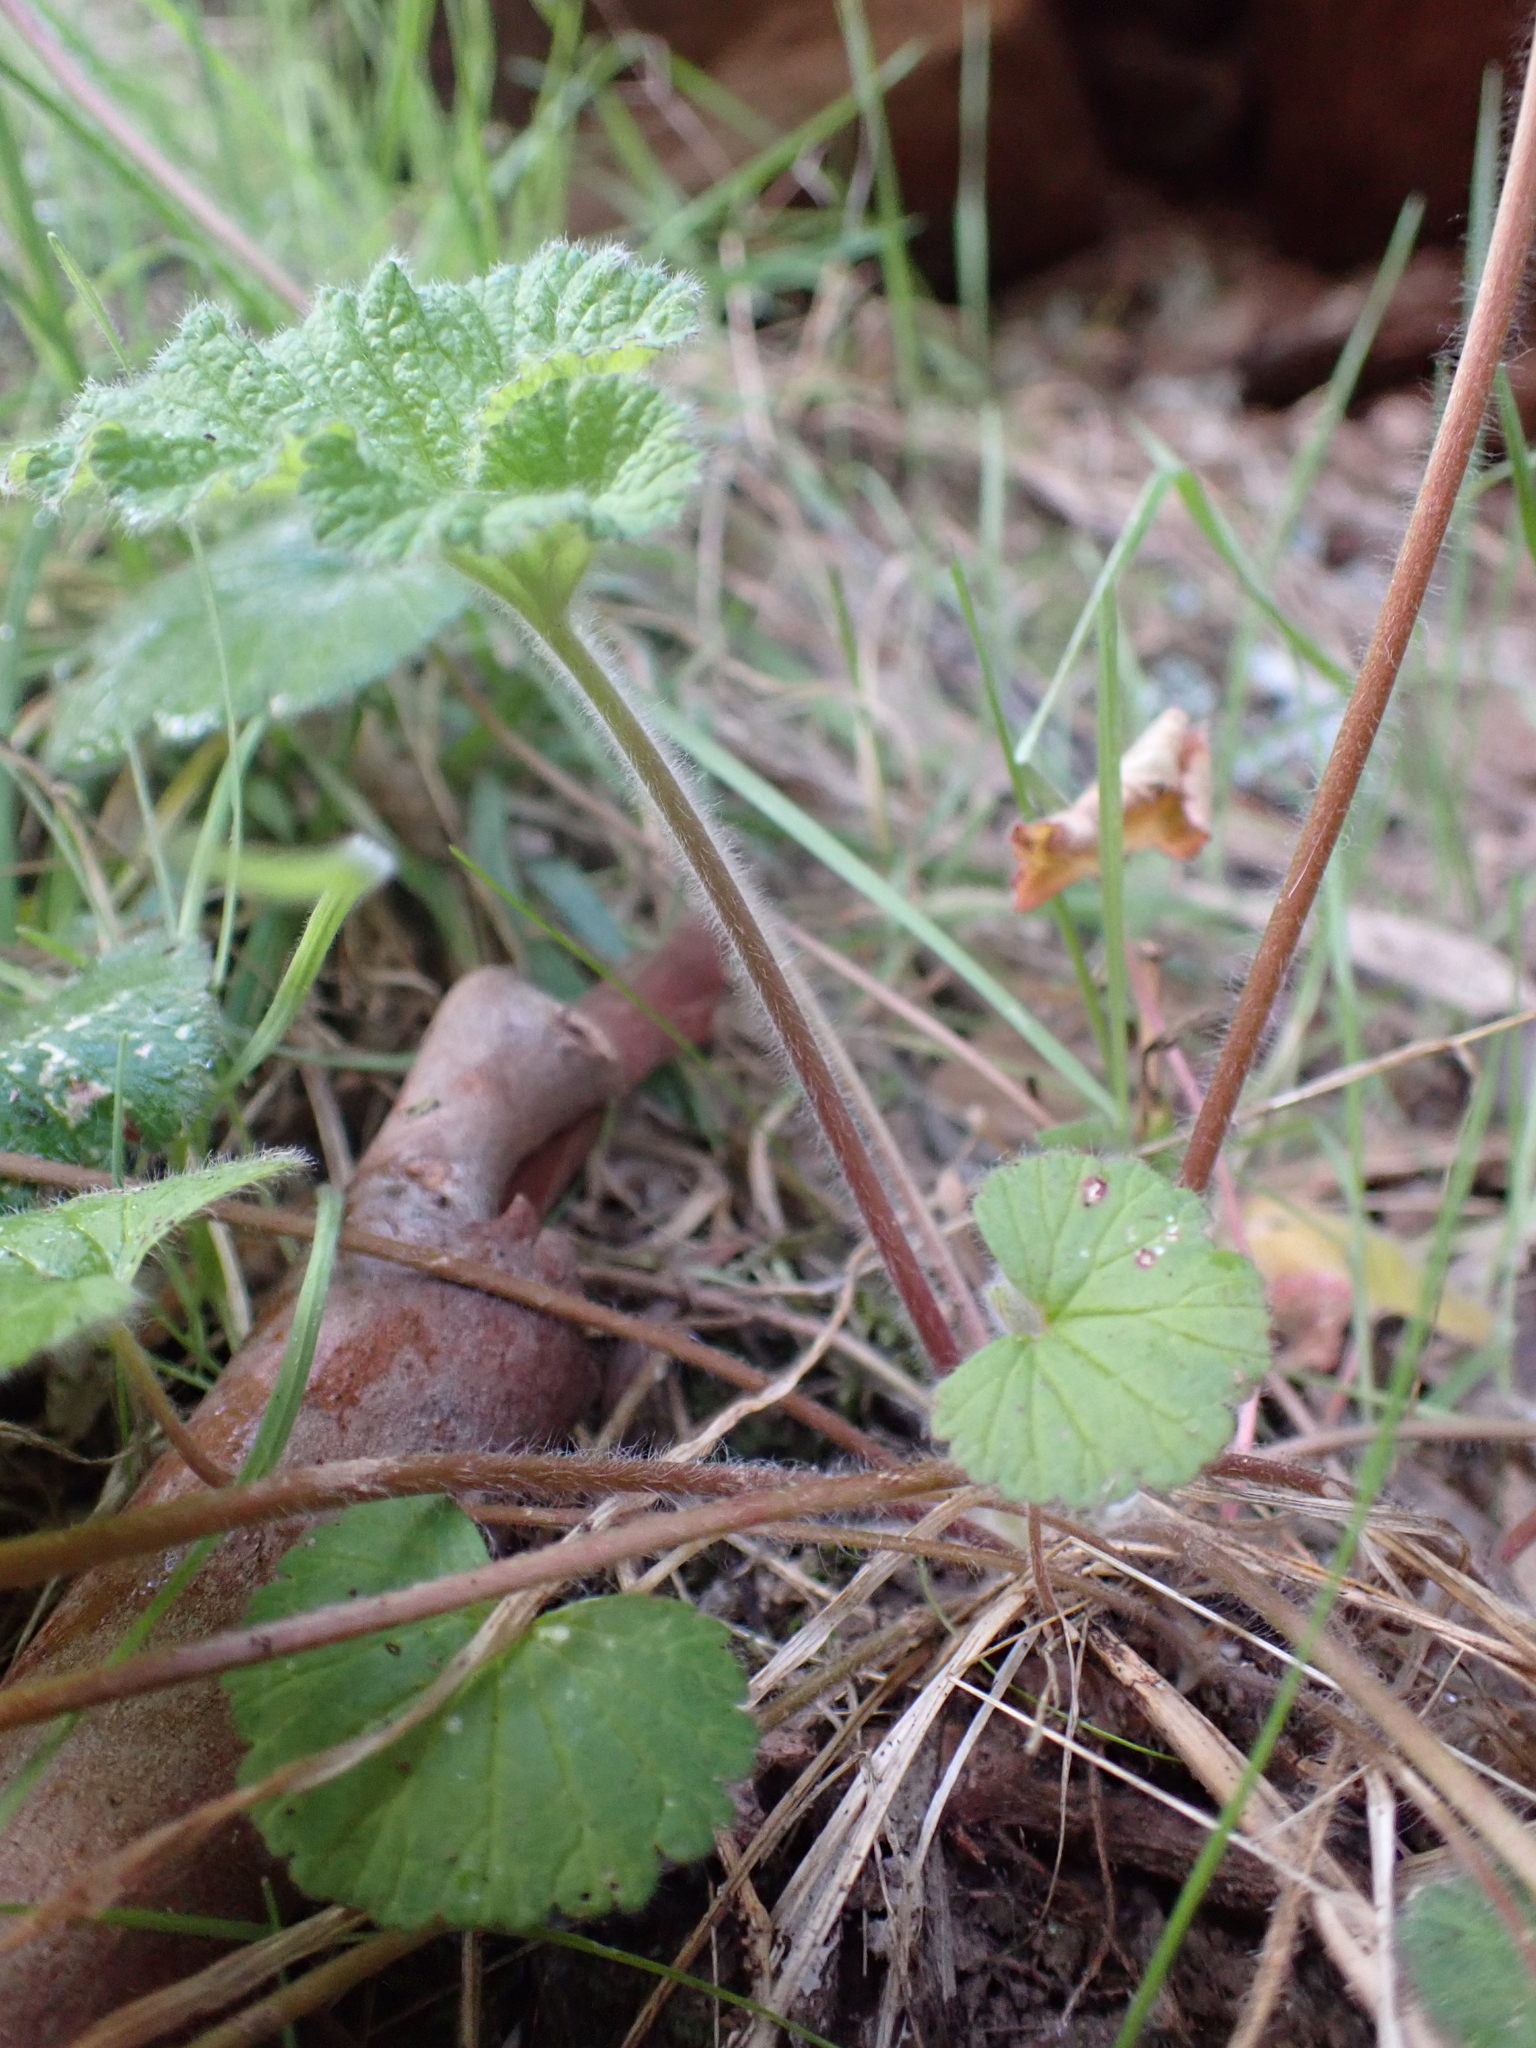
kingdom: Plantae
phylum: Tracheophyta
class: Magnoliopsida
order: Geraniales
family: Geraniaceae
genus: Pelargonium
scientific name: Pelargonium australe
